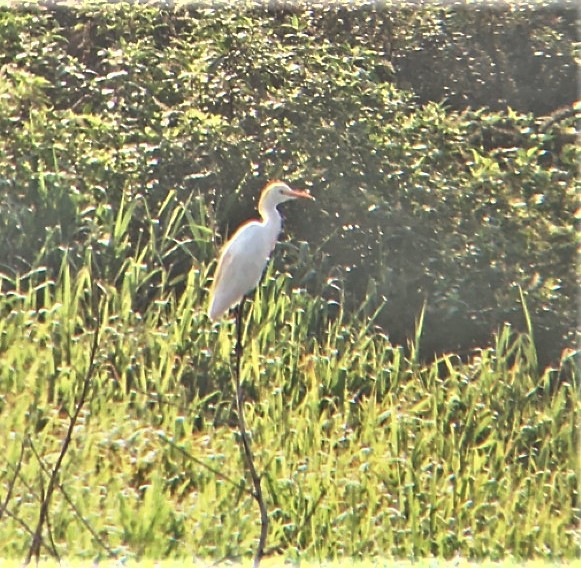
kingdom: Animalia
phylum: Chordata
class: Aves
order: Pelecaniformes
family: Ardeidae
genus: Bubulcus
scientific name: Bubulcus ibis
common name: Cattle egret
